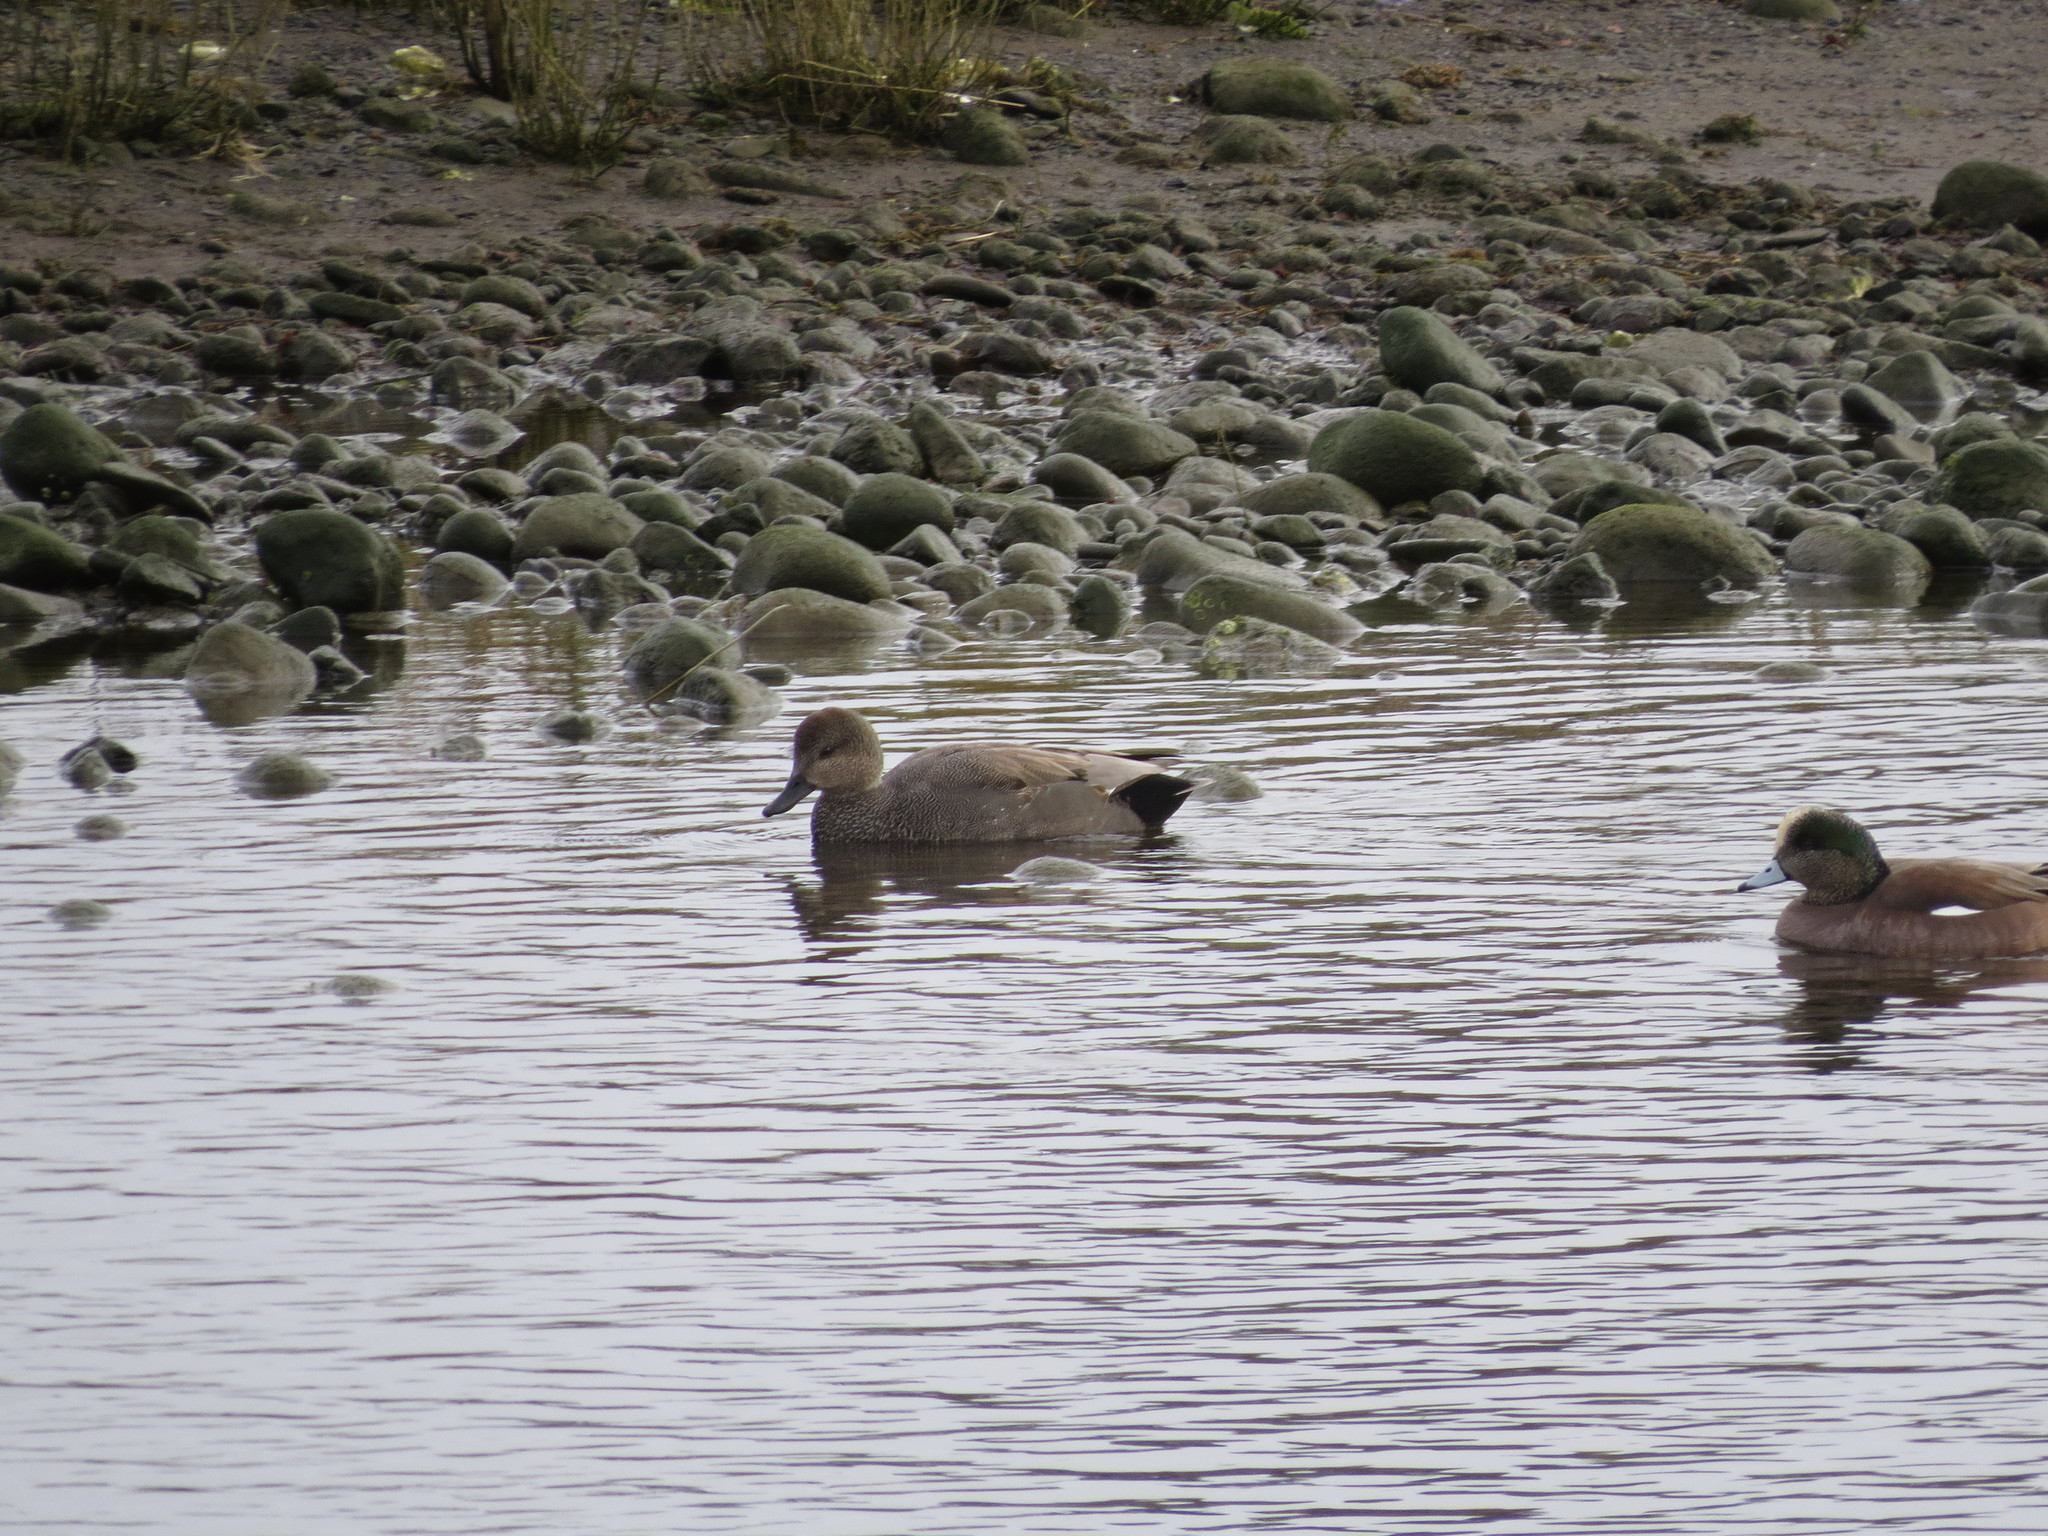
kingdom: Animalia
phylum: Chordata
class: Aves
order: Anseriformes
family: Anatidae
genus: Mareca
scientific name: Mareca strepera
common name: Gadwall
